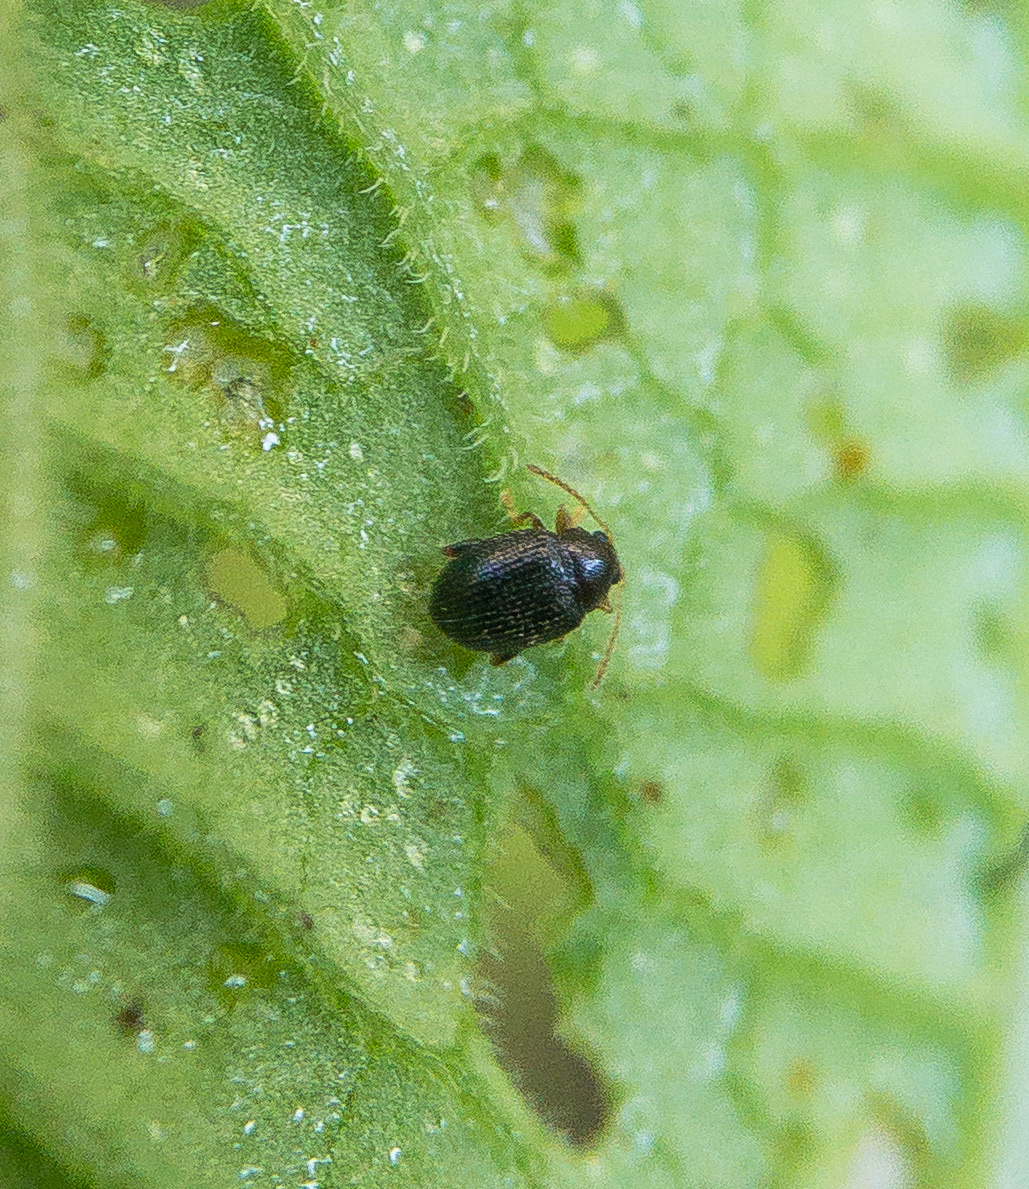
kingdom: Animalia
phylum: Arthropoda
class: Insecta
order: Coleoptera
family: Chrysomelidae
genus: Epitrix
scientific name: Epitrix brevis
